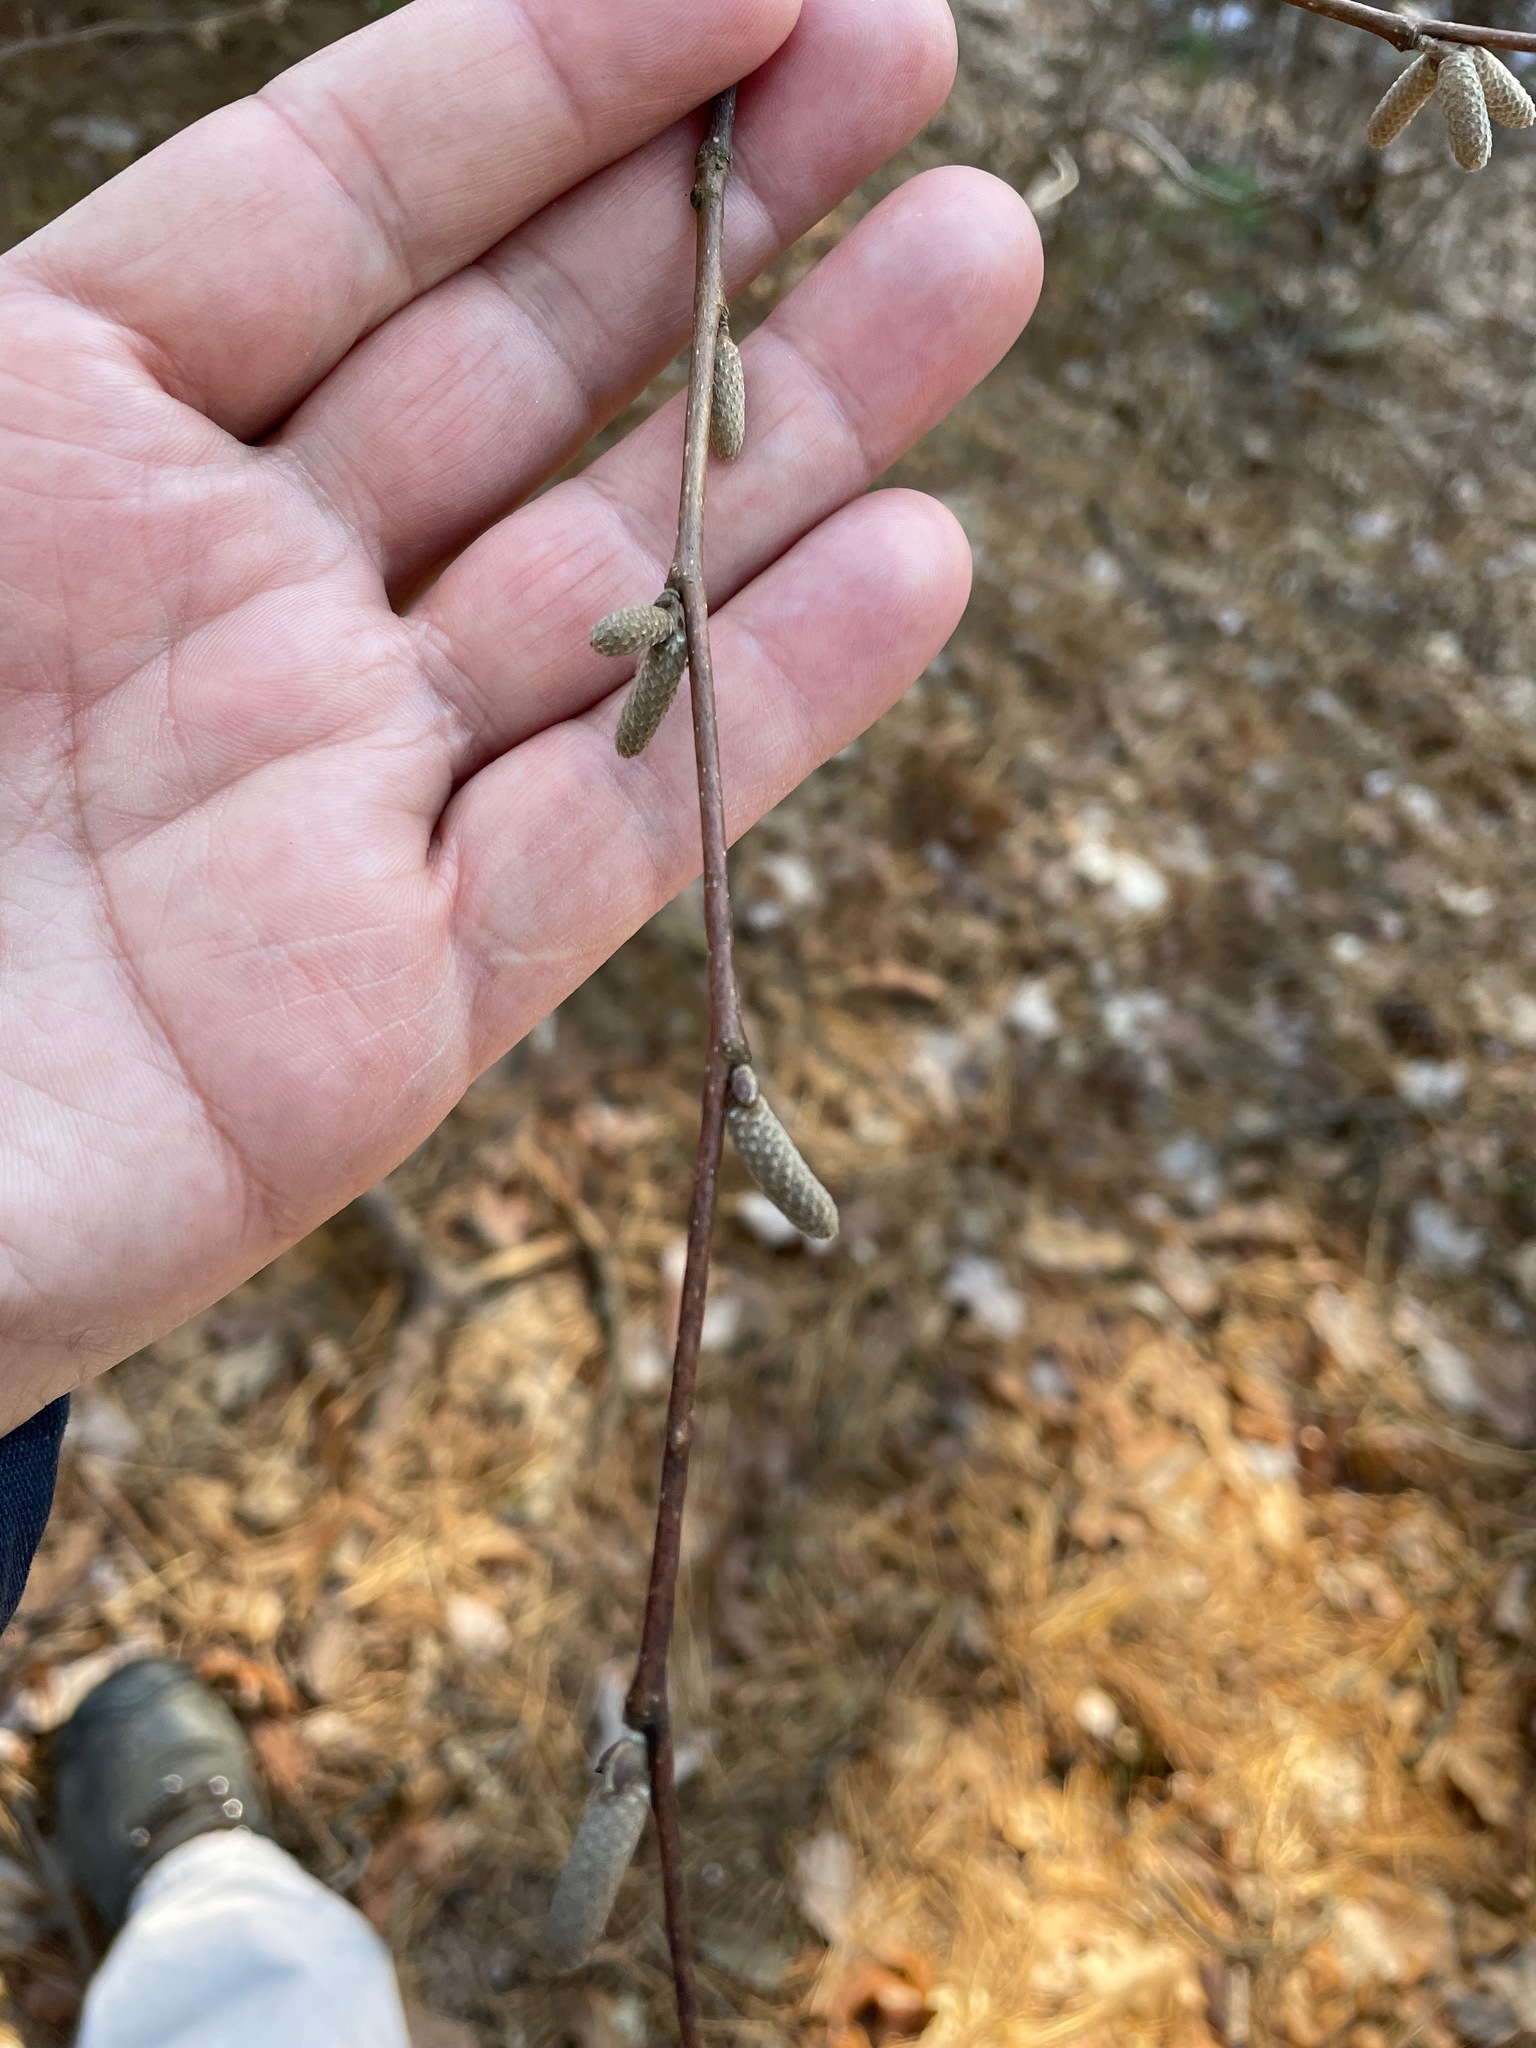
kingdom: Plantae
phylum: Tracheophyta
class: Magnoliopsida
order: Fagales
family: Betulaceae
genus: Corylus
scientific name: Corylus cornuta
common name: Beaked hazel
